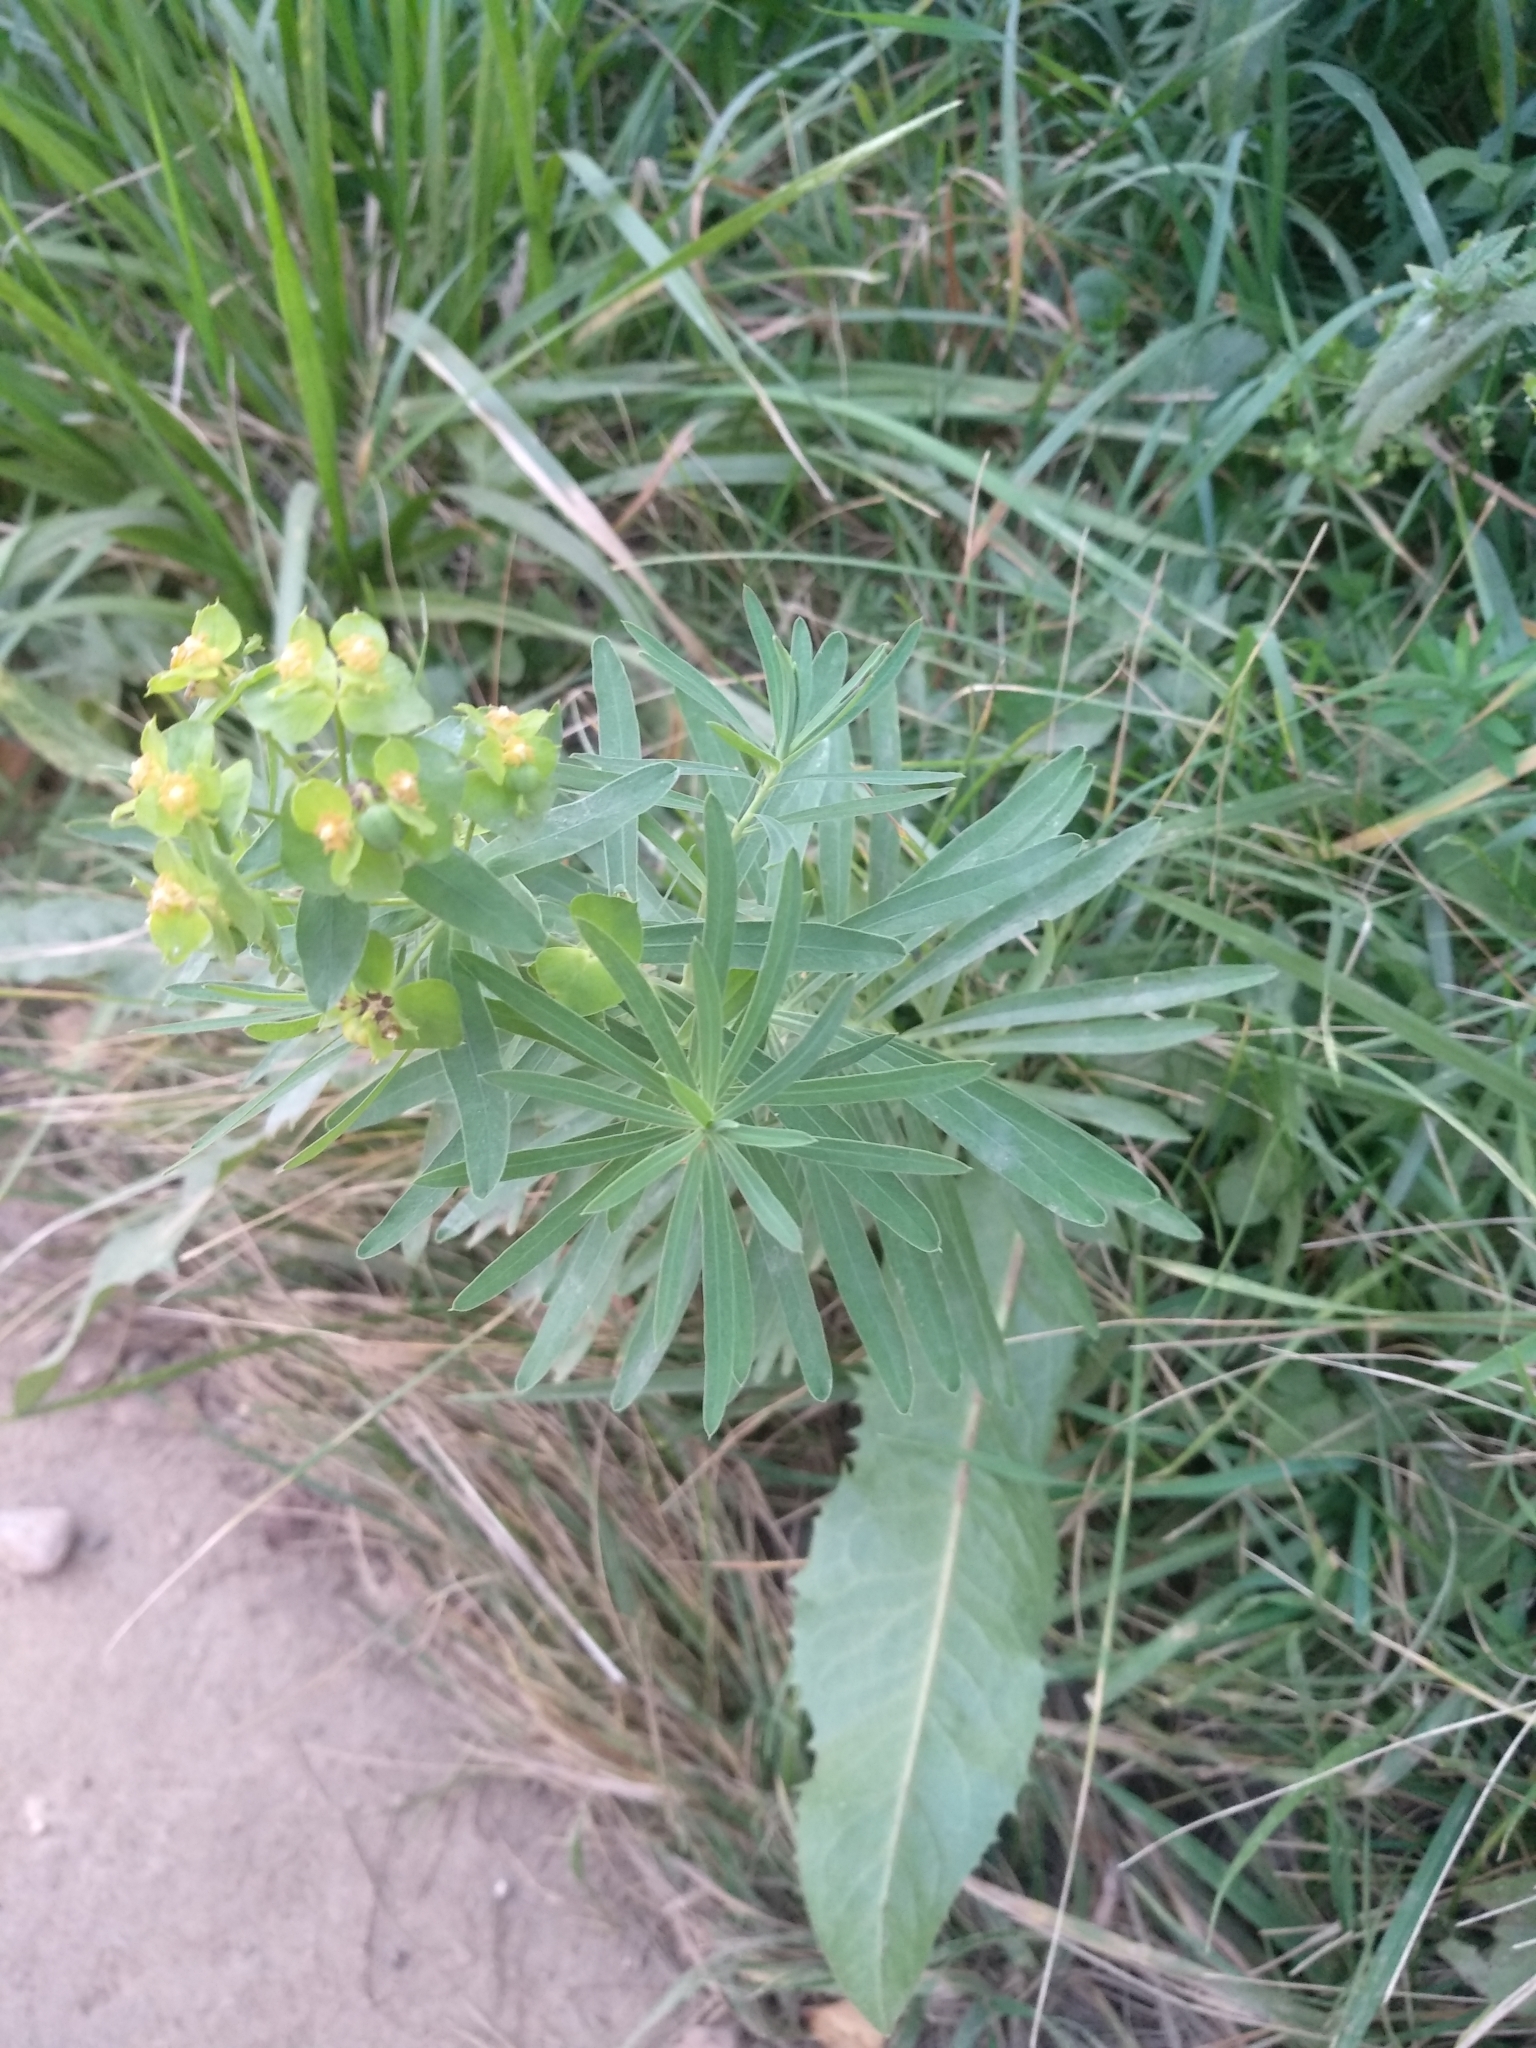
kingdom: Plantae
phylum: Tracheophyta
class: Magnoliopsida
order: Malpighiales
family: Euphorbiaceae
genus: Euphorbia
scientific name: Euphorbia virgata
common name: Leafy spurge
